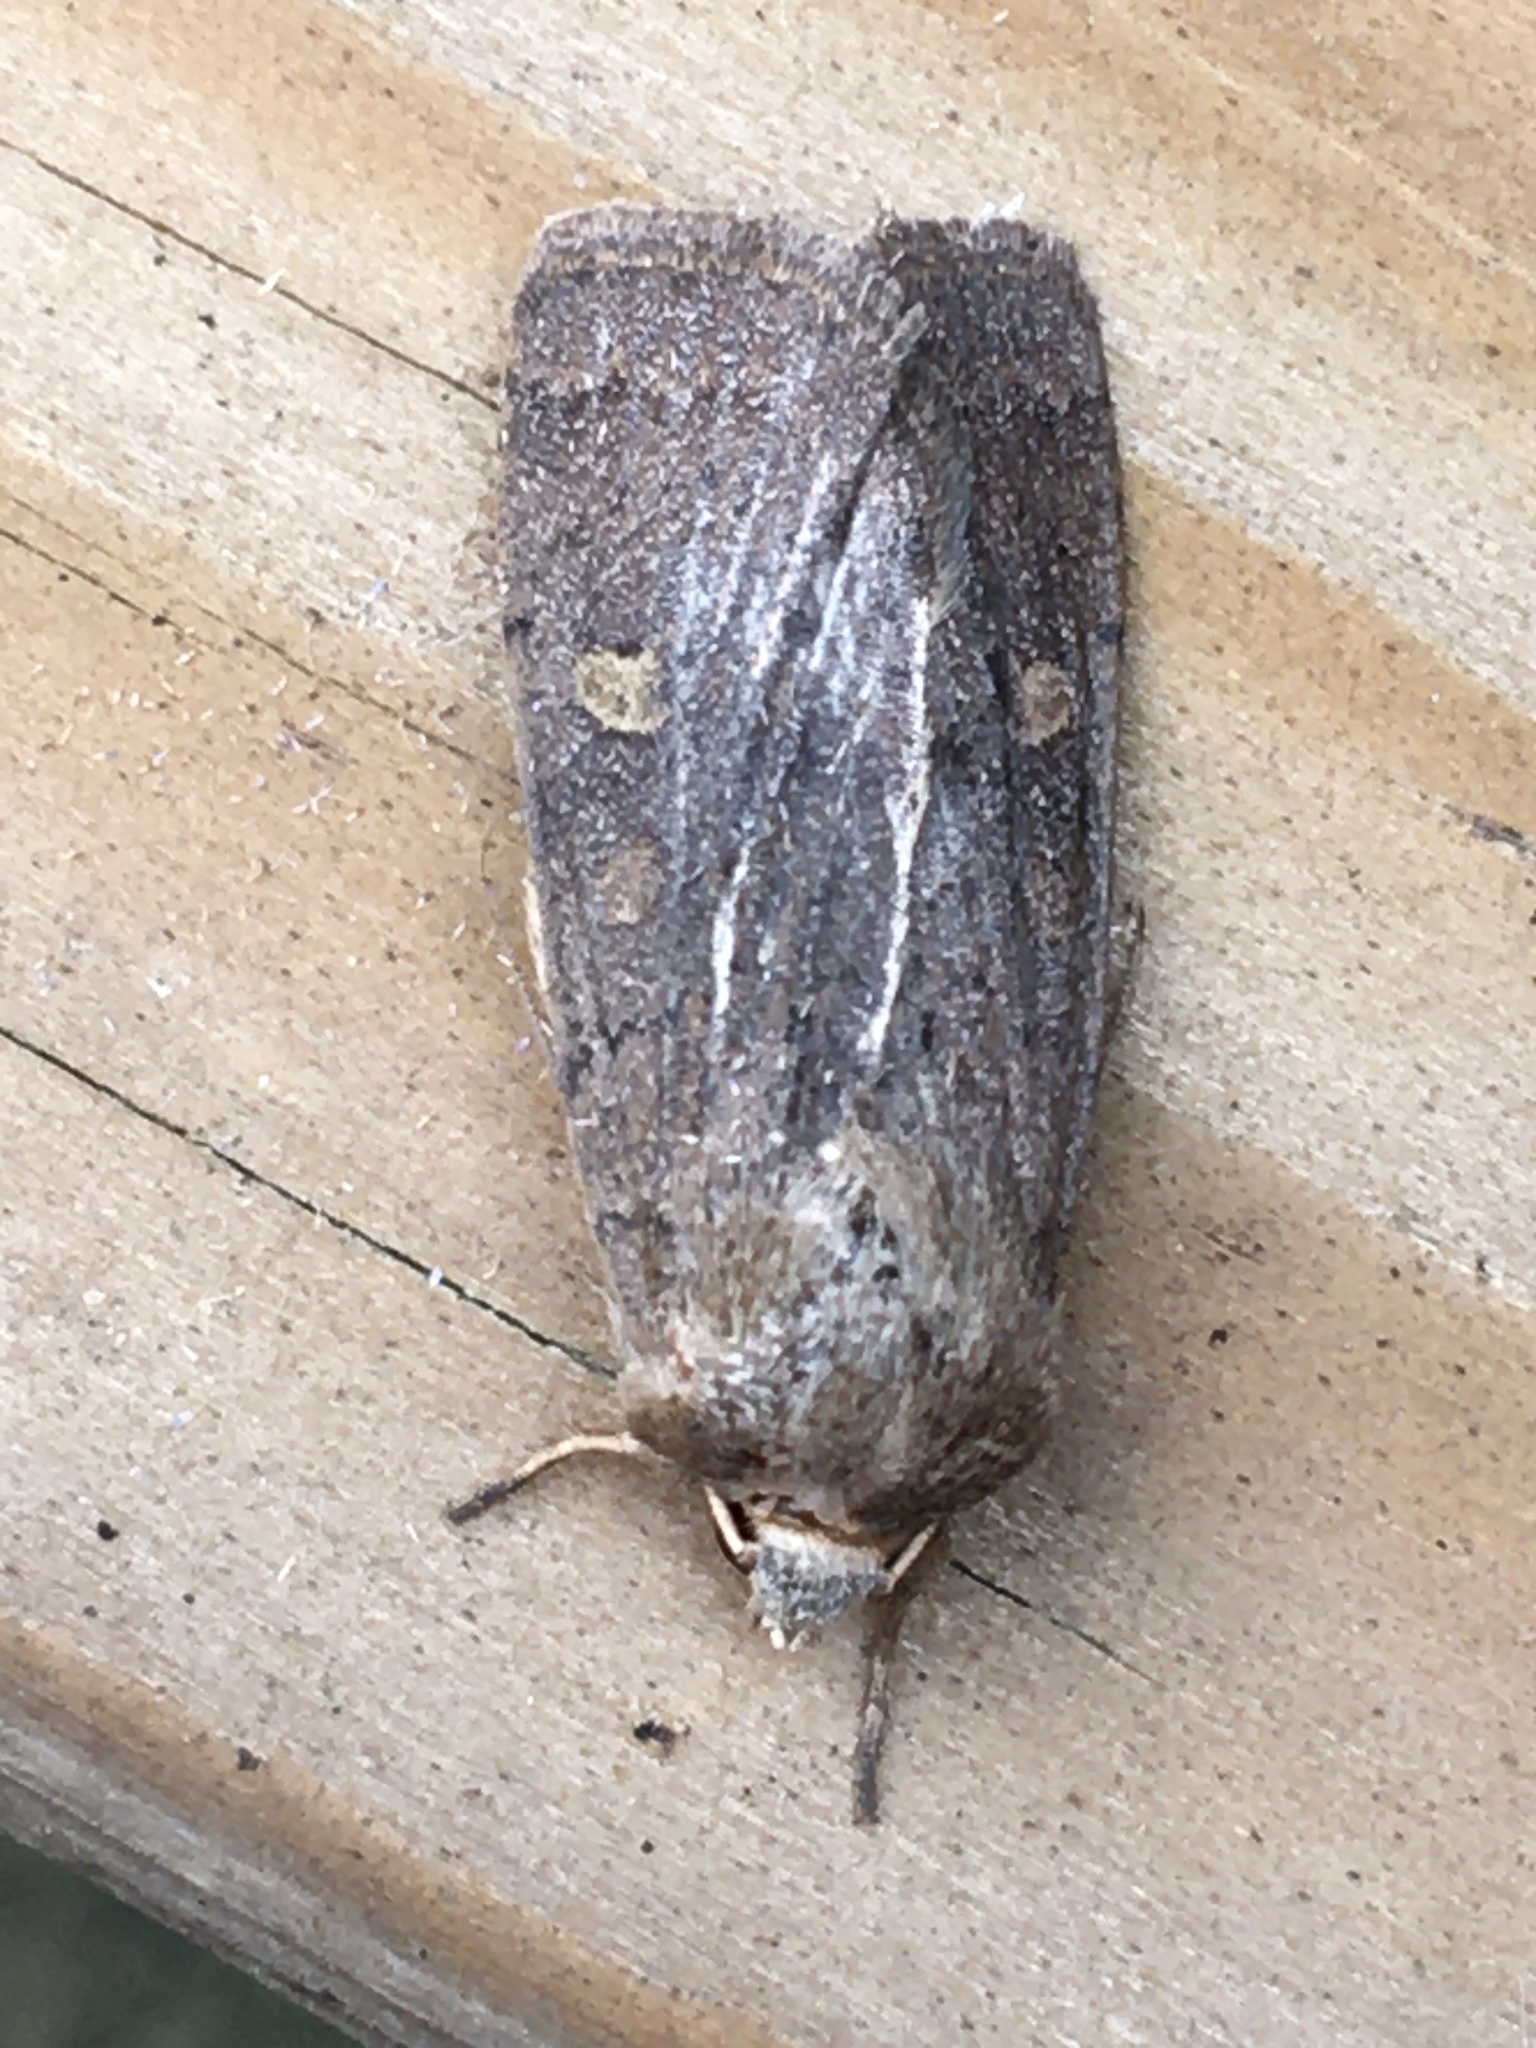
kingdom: Animalia
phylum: Arthropoda
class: Insecta
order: Lepidoptera
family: Noctuidae
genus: Xestia
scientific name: Xestia xanthographa
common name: Square-spot rustic
